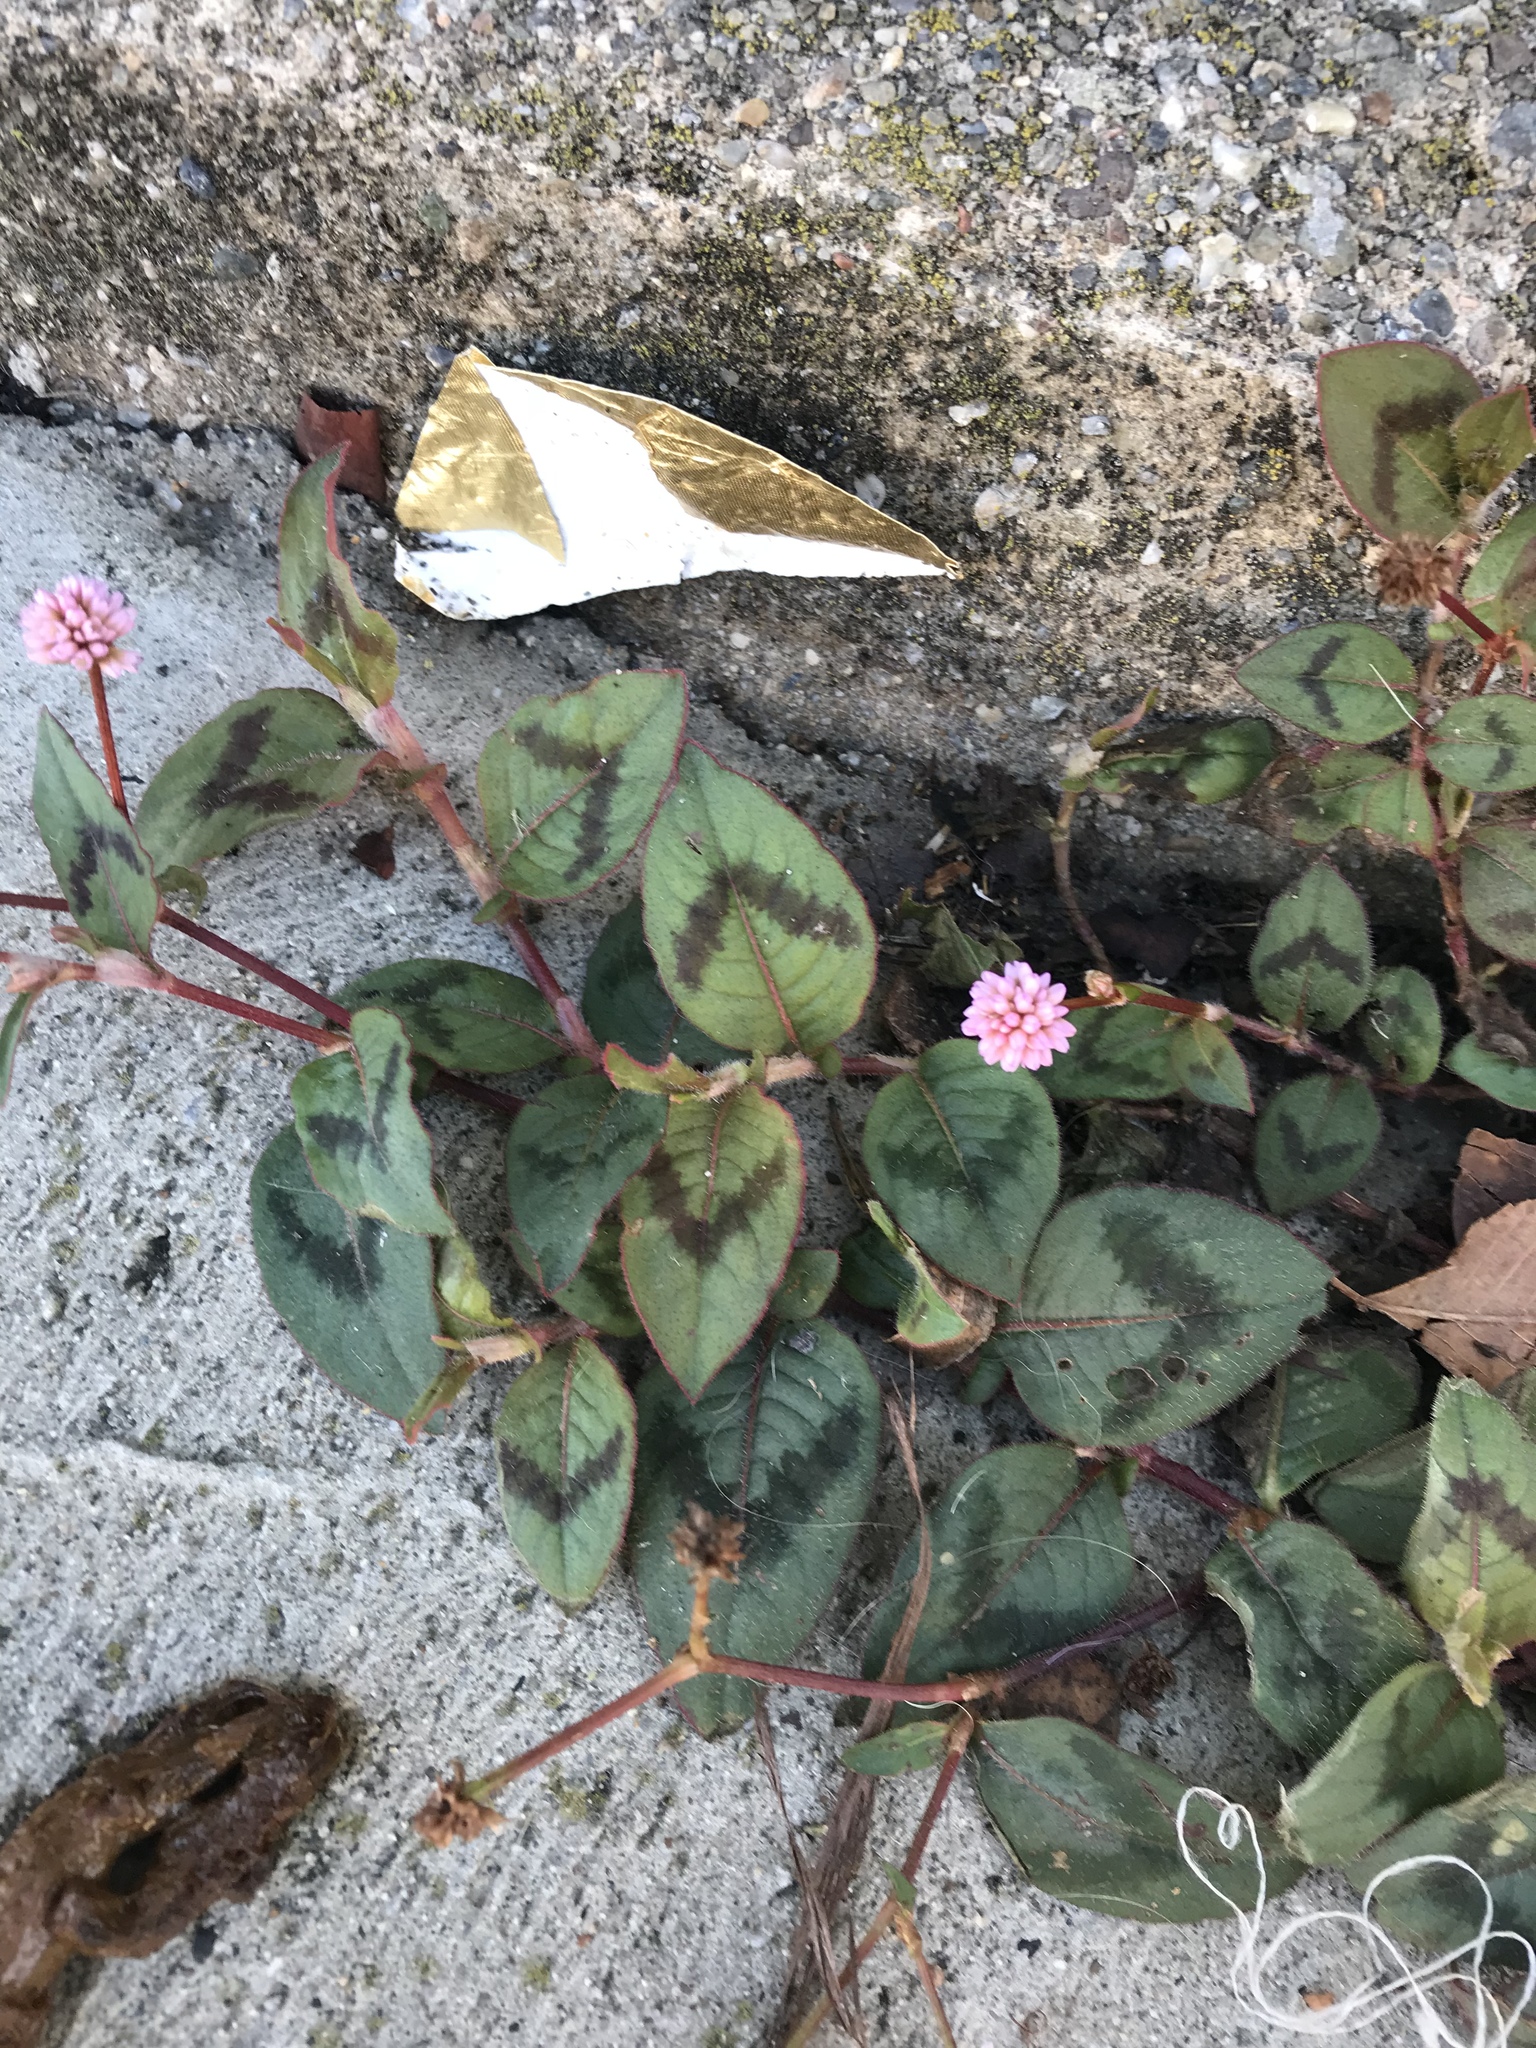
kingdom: Plantae
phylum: Tracheophyta
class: Magnoliopsida
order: Caryophyllales
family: Polygonaceae
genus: Persicaria
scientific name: Persicaria capitata
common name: Pinkhead smartweed
